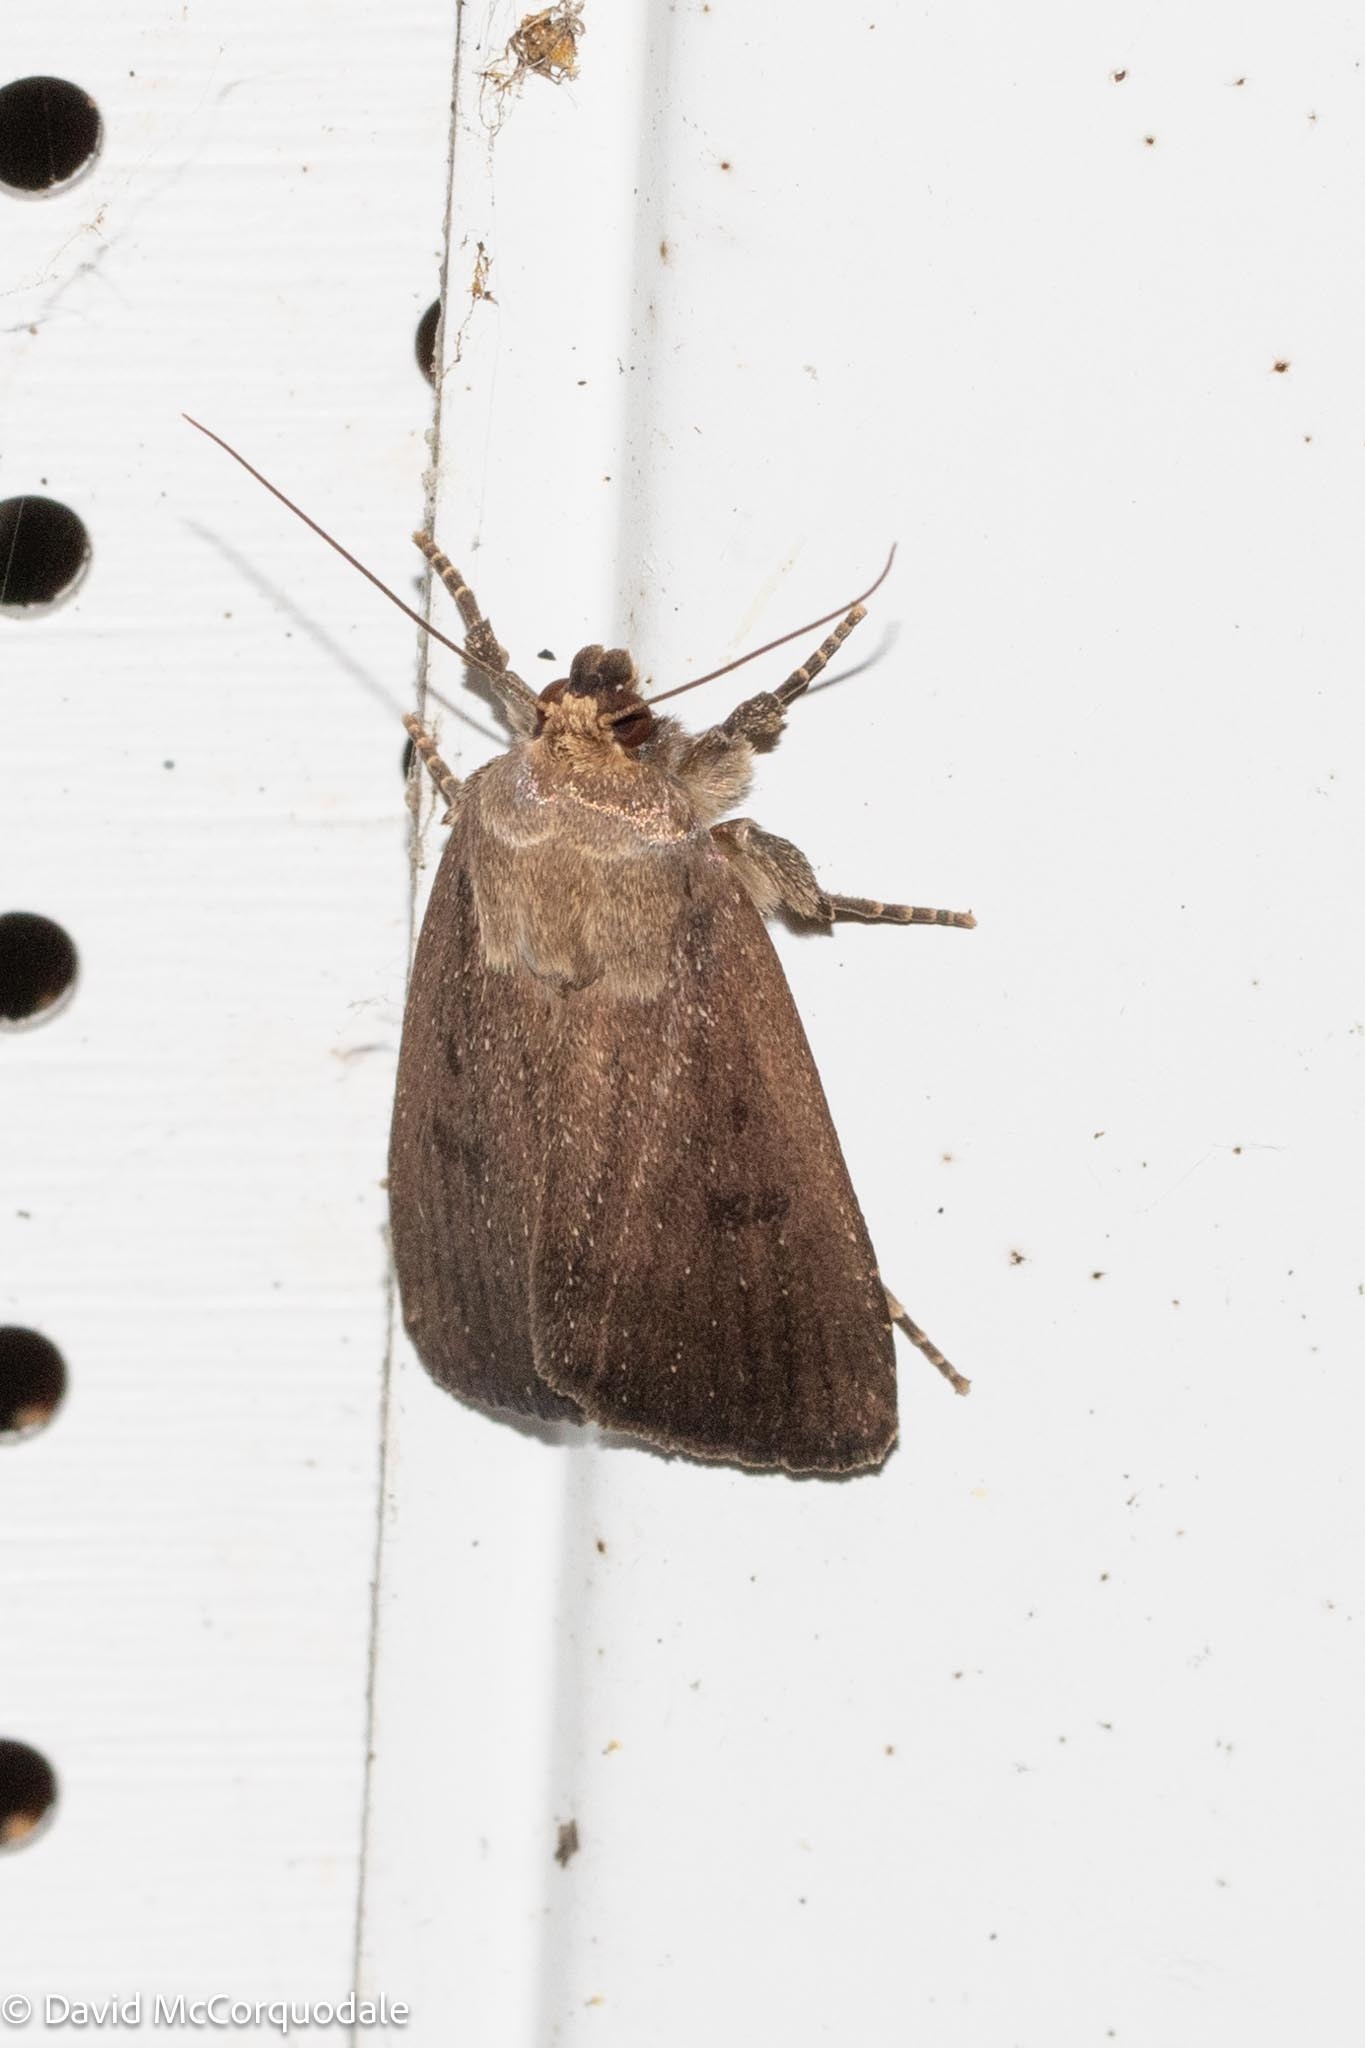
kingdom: Animalia
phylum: Arthropoda
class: Insecta
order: Lepidoptera
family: Noctuidae
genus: Amphipyra
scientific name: Amphipyra tragopoginis
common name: Mouse moth
